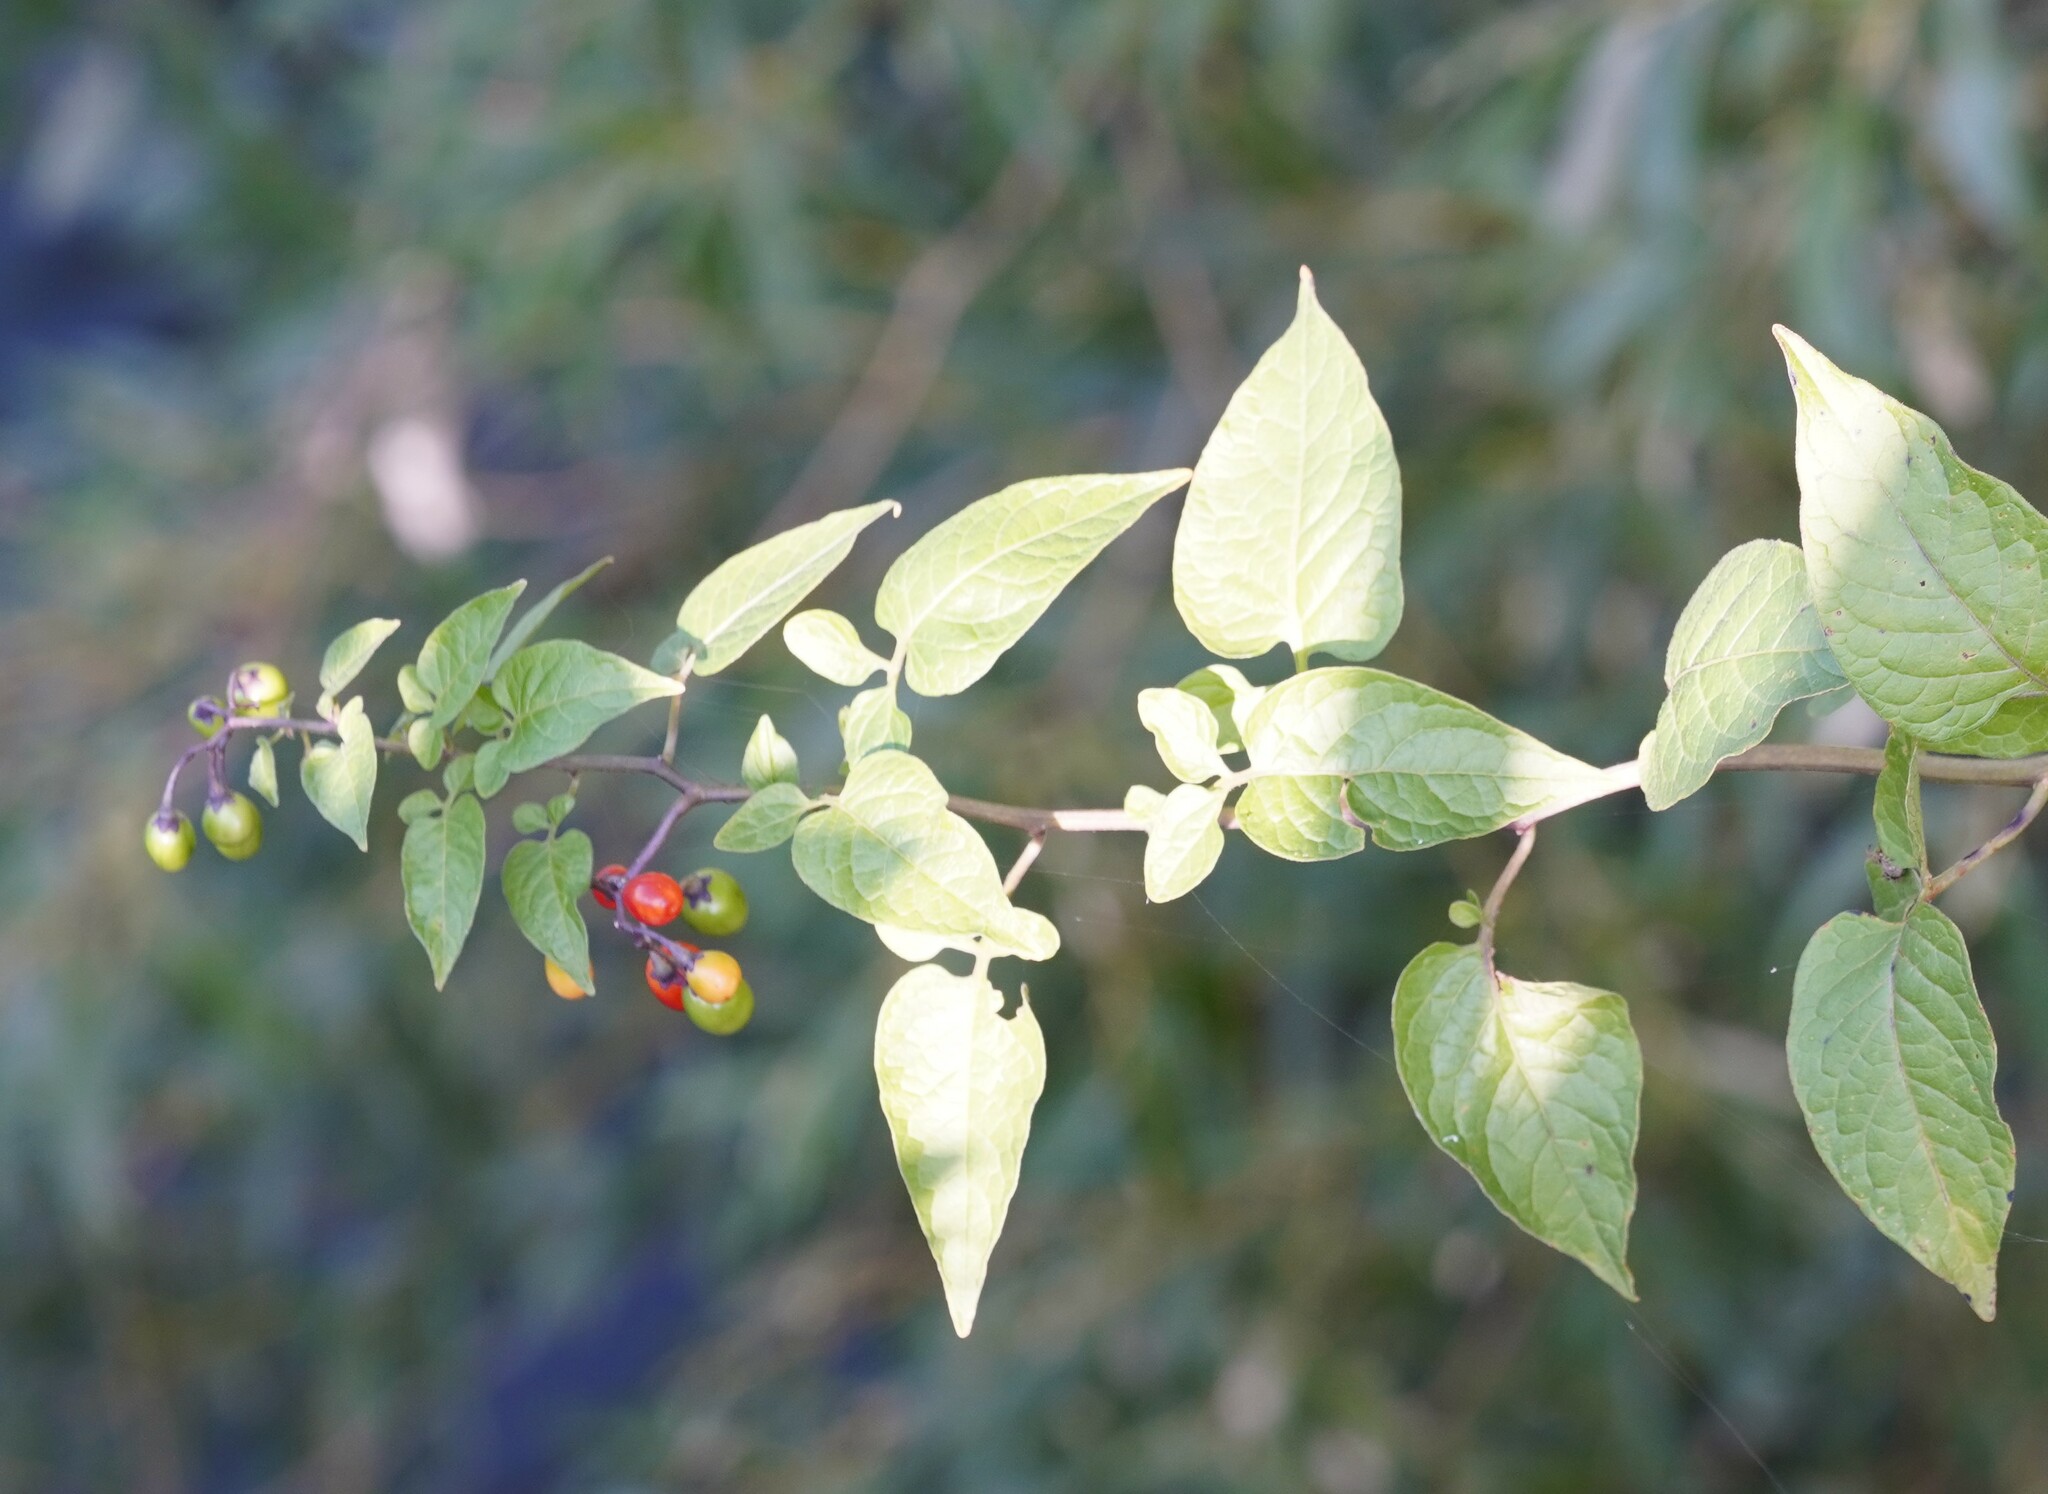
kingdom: Plantae
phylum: Tracheophyta
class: Magnoliopsida
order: Solanales
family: Solanaceae
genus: Solanum
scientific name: Solanum dulcamara
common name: Climbing nightshade
